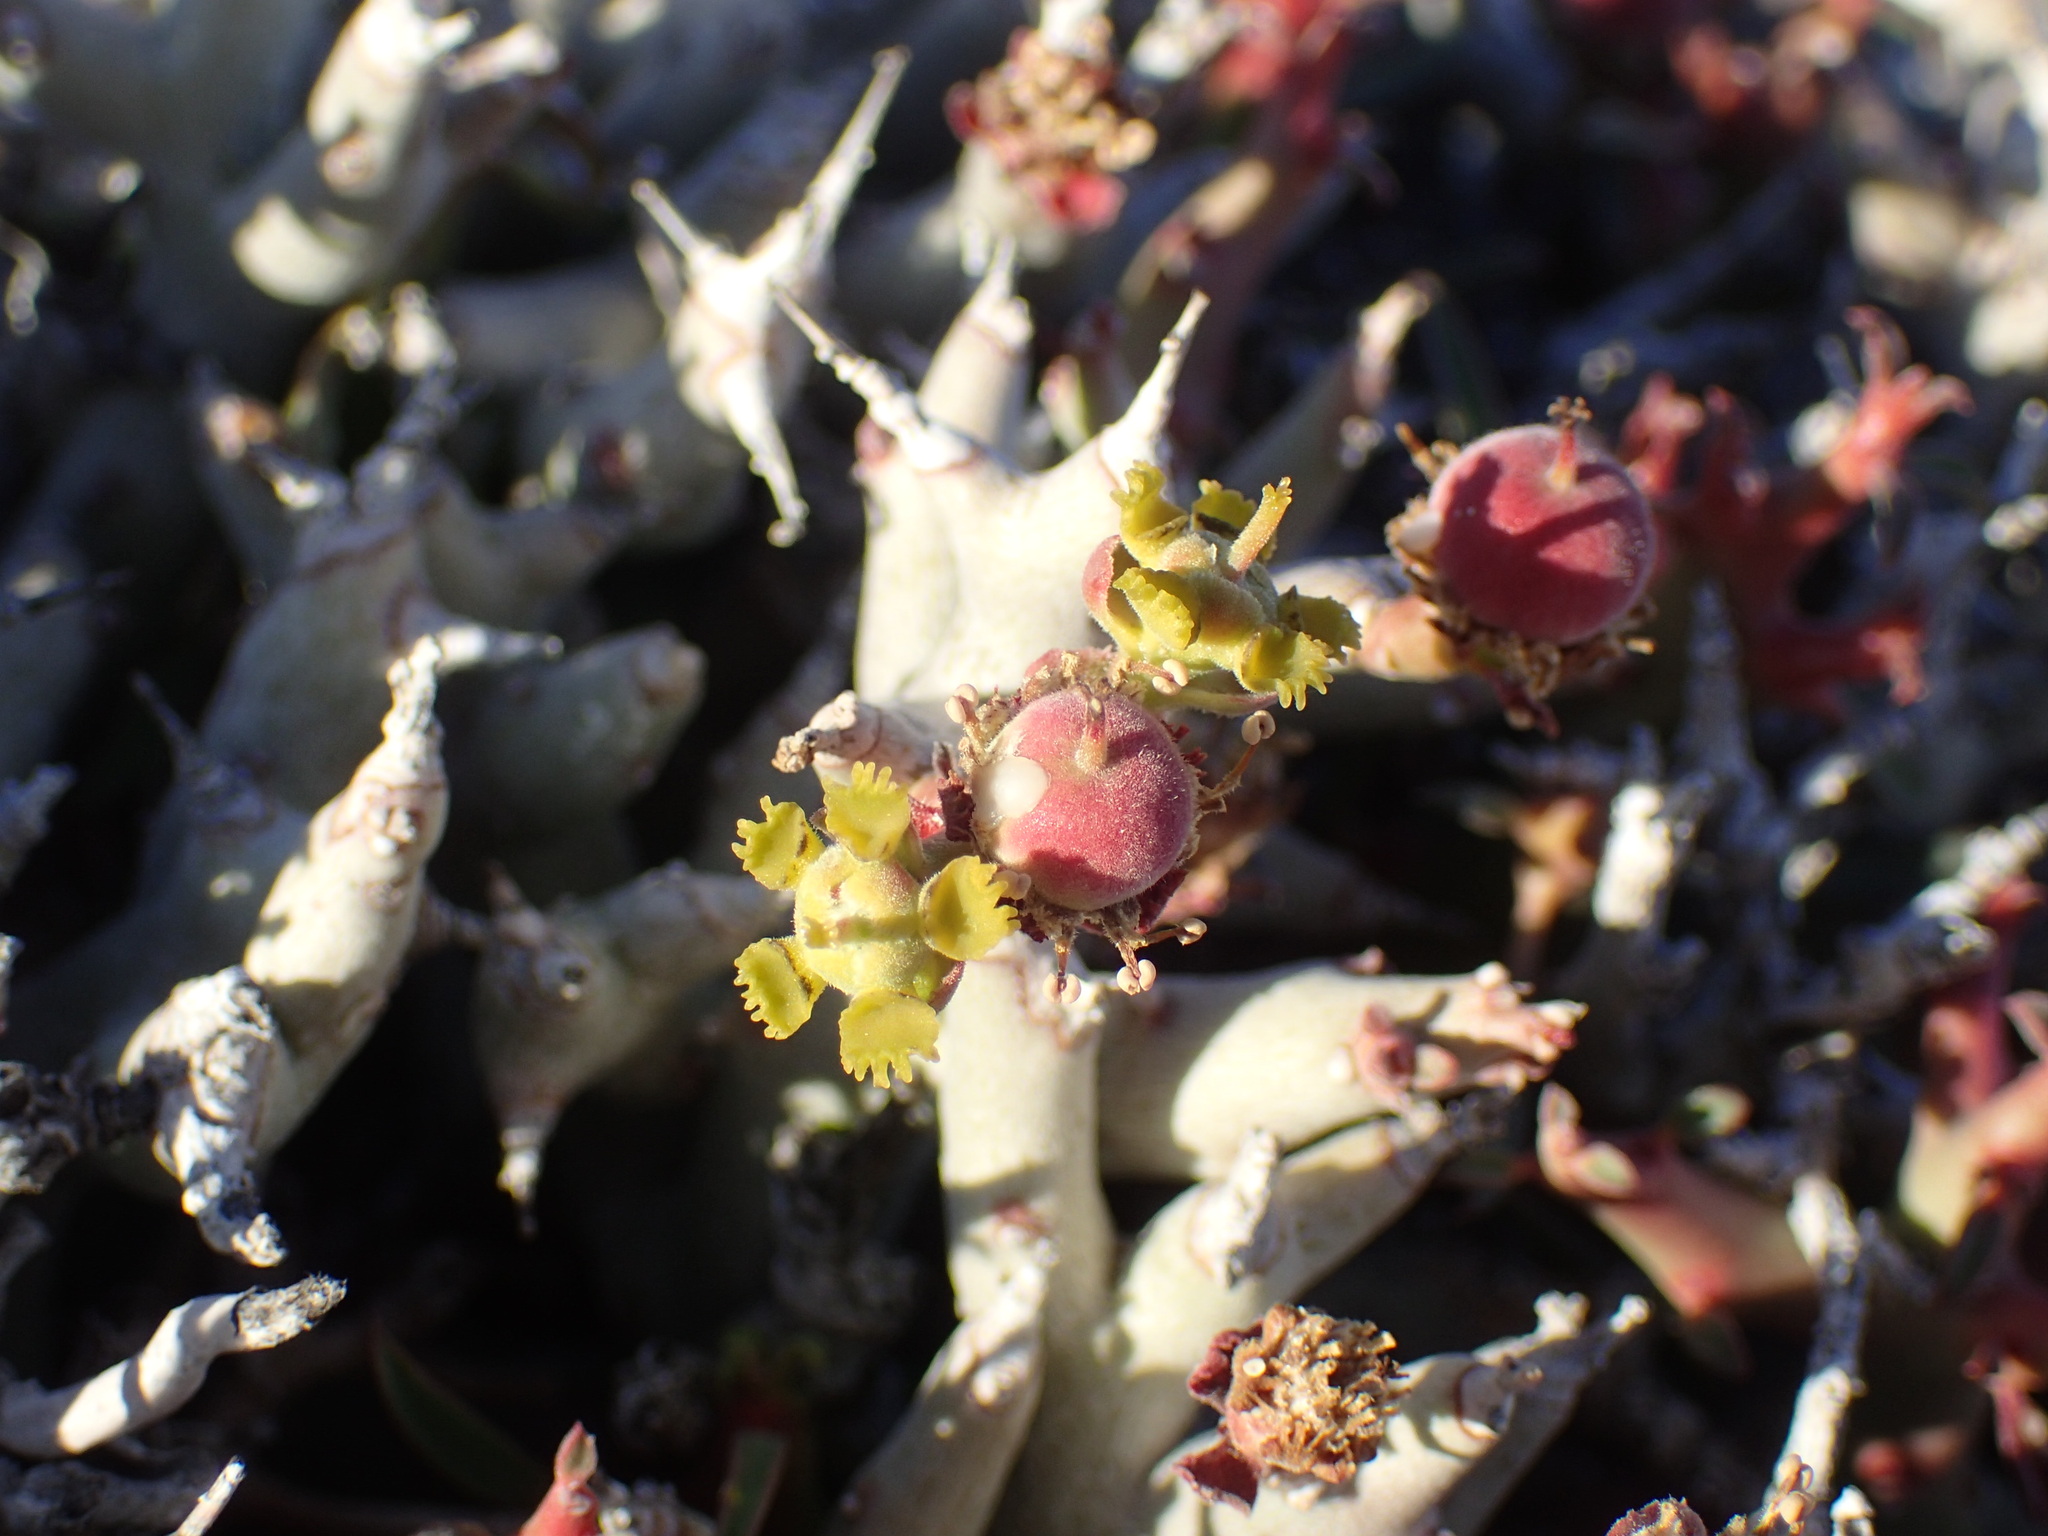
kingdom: Plantae
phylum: Tracheophyta
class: Magnoliopsida
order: Malpighiales
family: Euphorbiaceae
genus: Euphorbia
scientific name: Euphorbia lignosa
